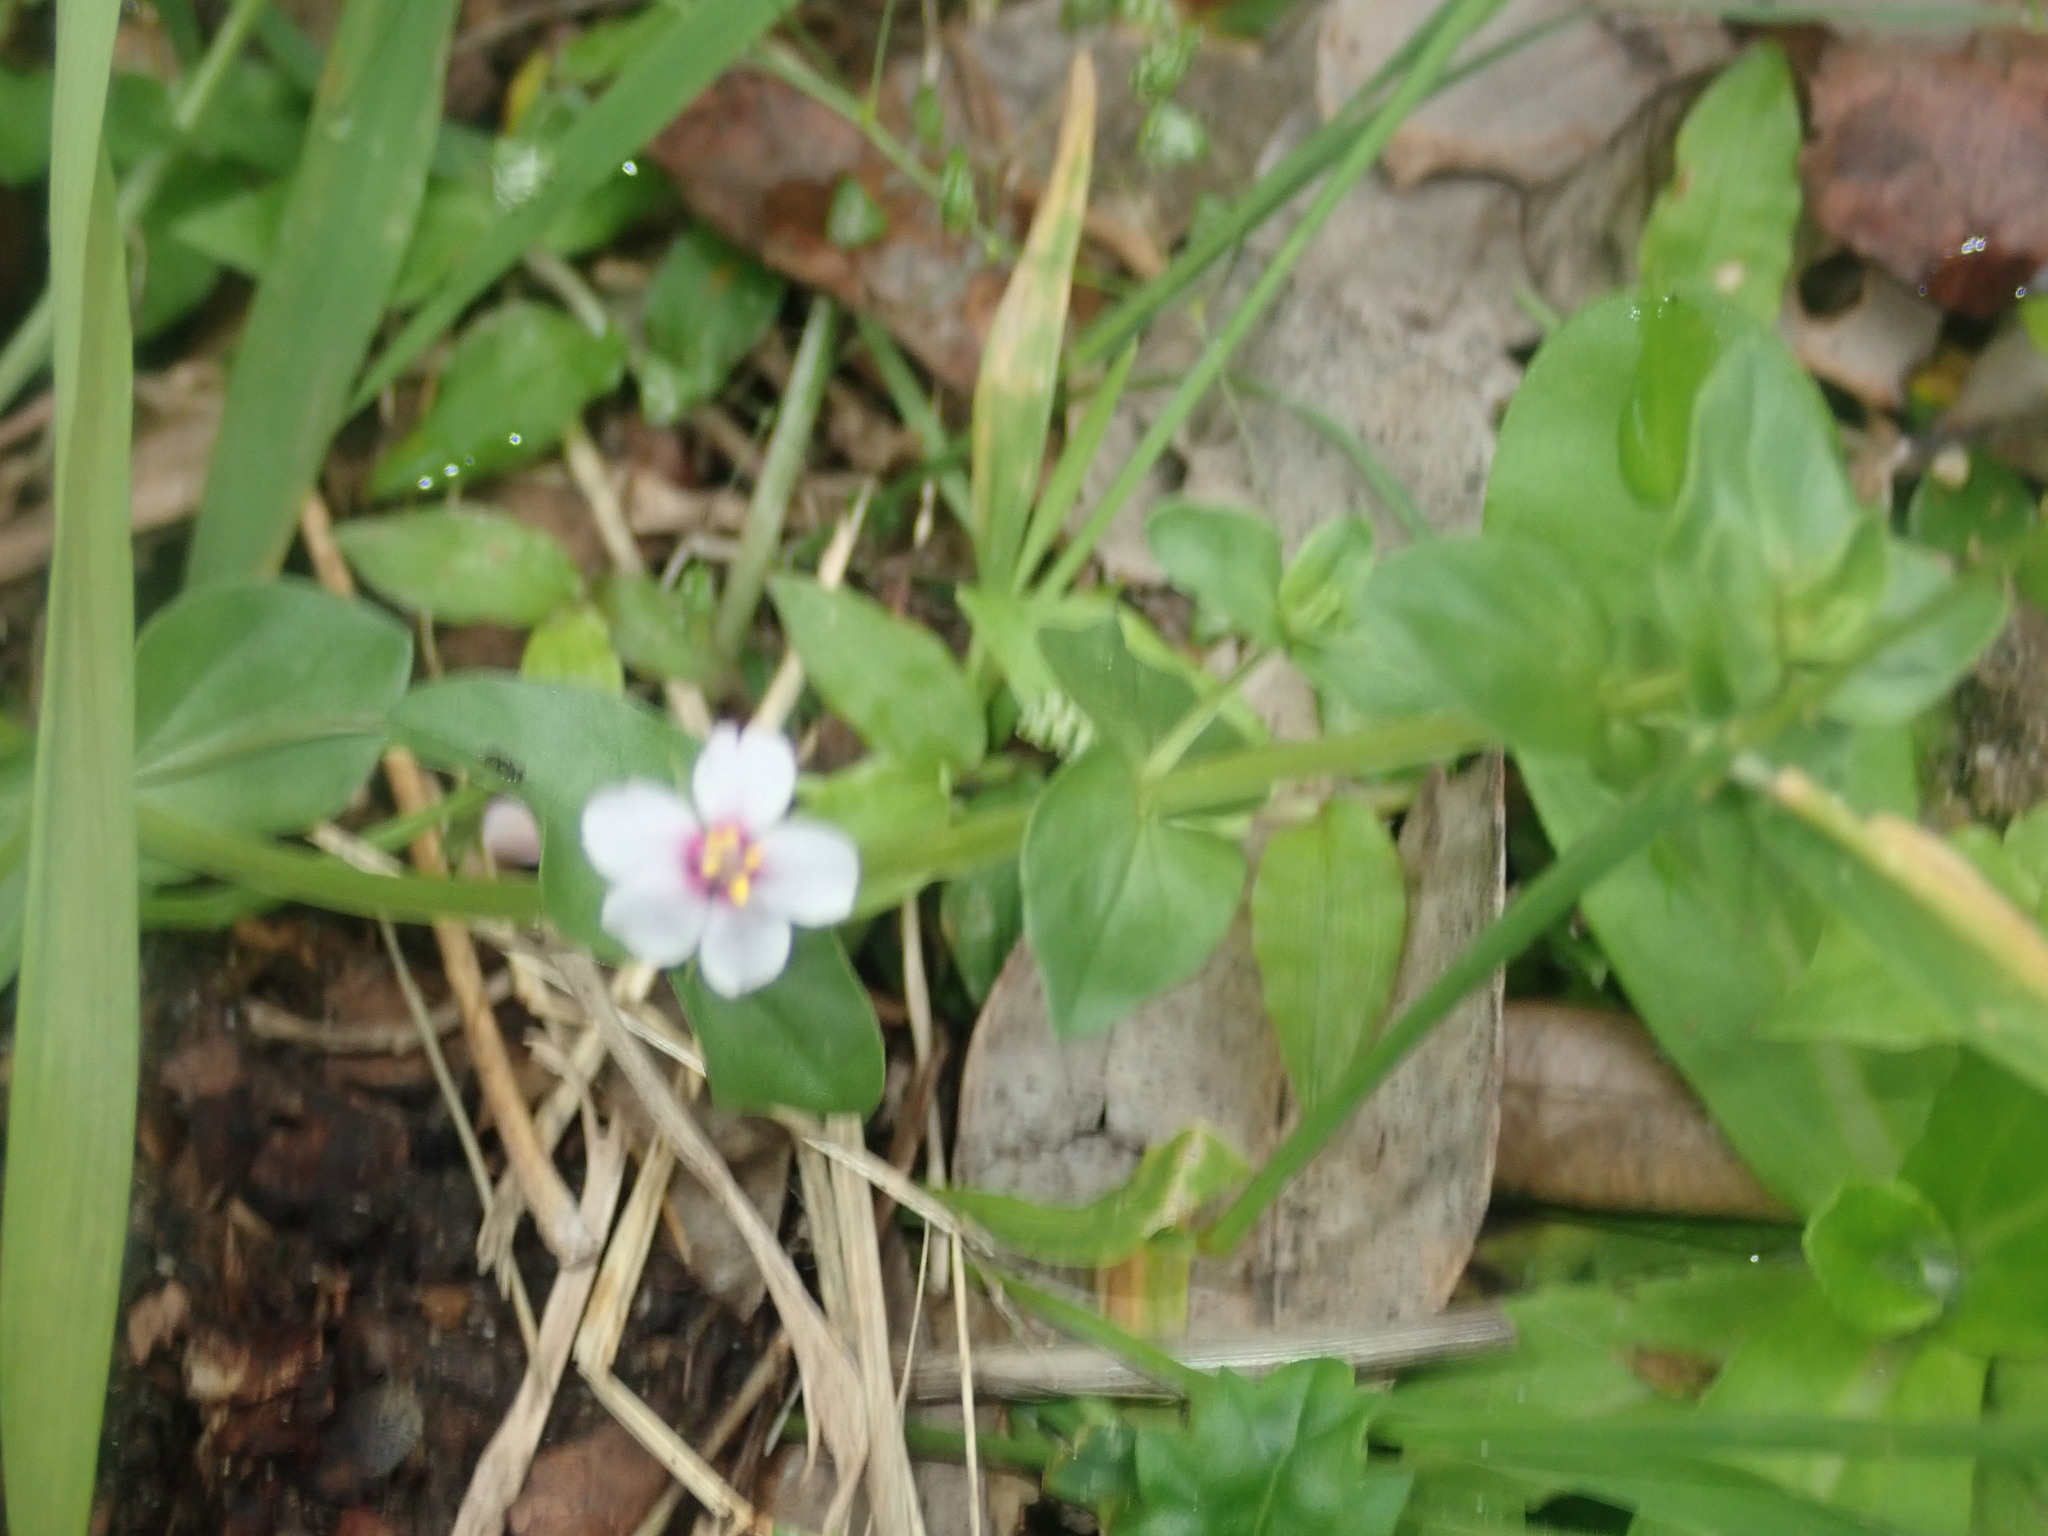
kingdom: Plantae
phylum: Tracheophyta
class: Magnoliopsida
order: Ericales
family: Primulaceae
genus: Lysimachia
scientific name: Lysimachia arvensis
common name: Scarlet pimpernel
